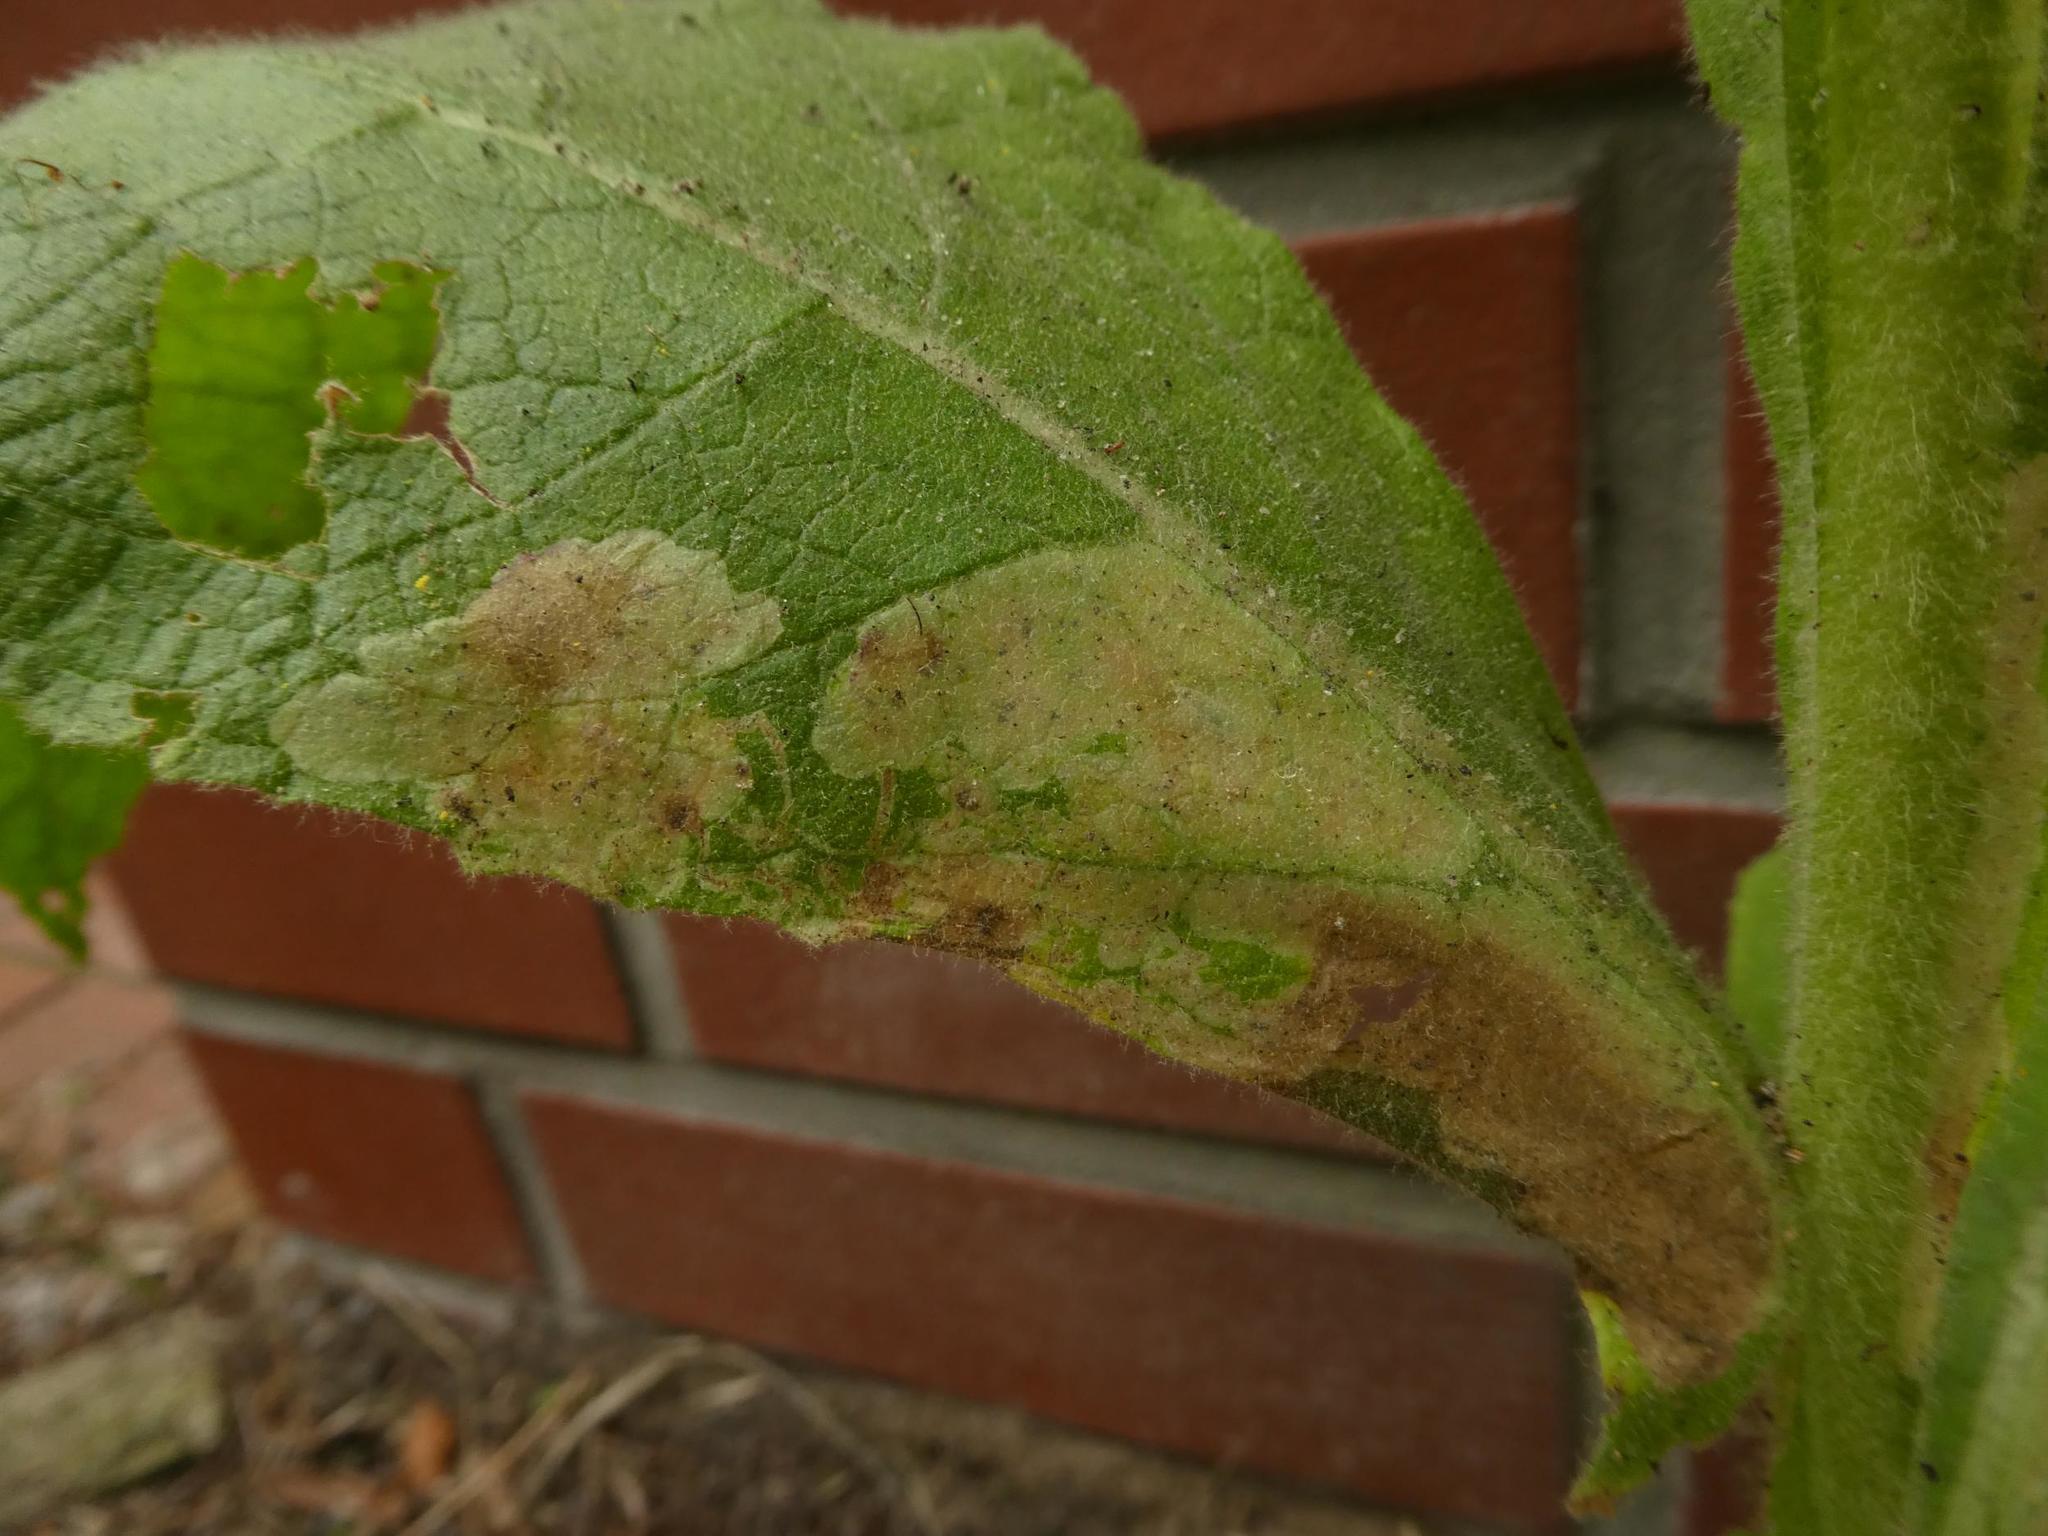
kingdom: Animalia
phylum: Arthropoda
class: Insecta
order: Diptera
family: Agromyzidae
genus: Amauromyza
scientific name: Amauromyza verbasci
